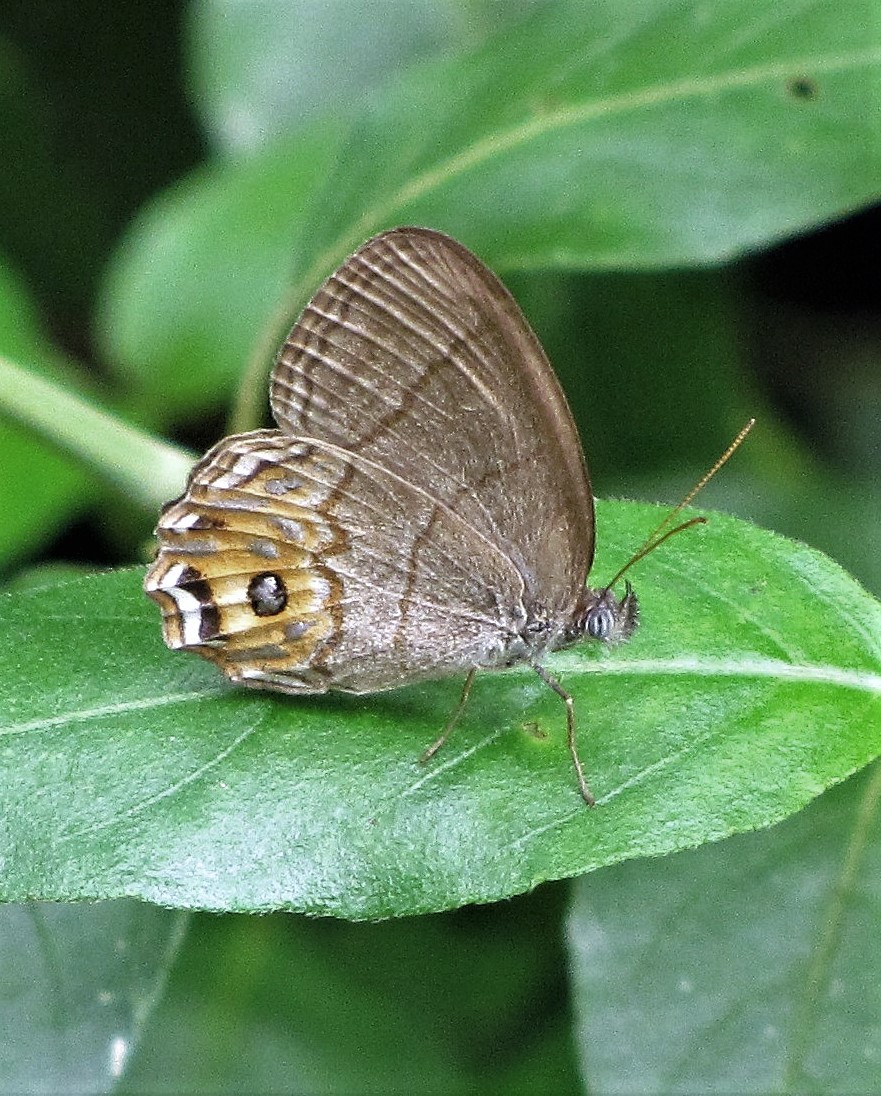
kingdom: Animalia
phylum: Arthropoda
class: Insecta
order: Lepidoptera
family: Nymphalidae
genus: Splendeuptychia
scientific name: Splendeuptychia libitina
